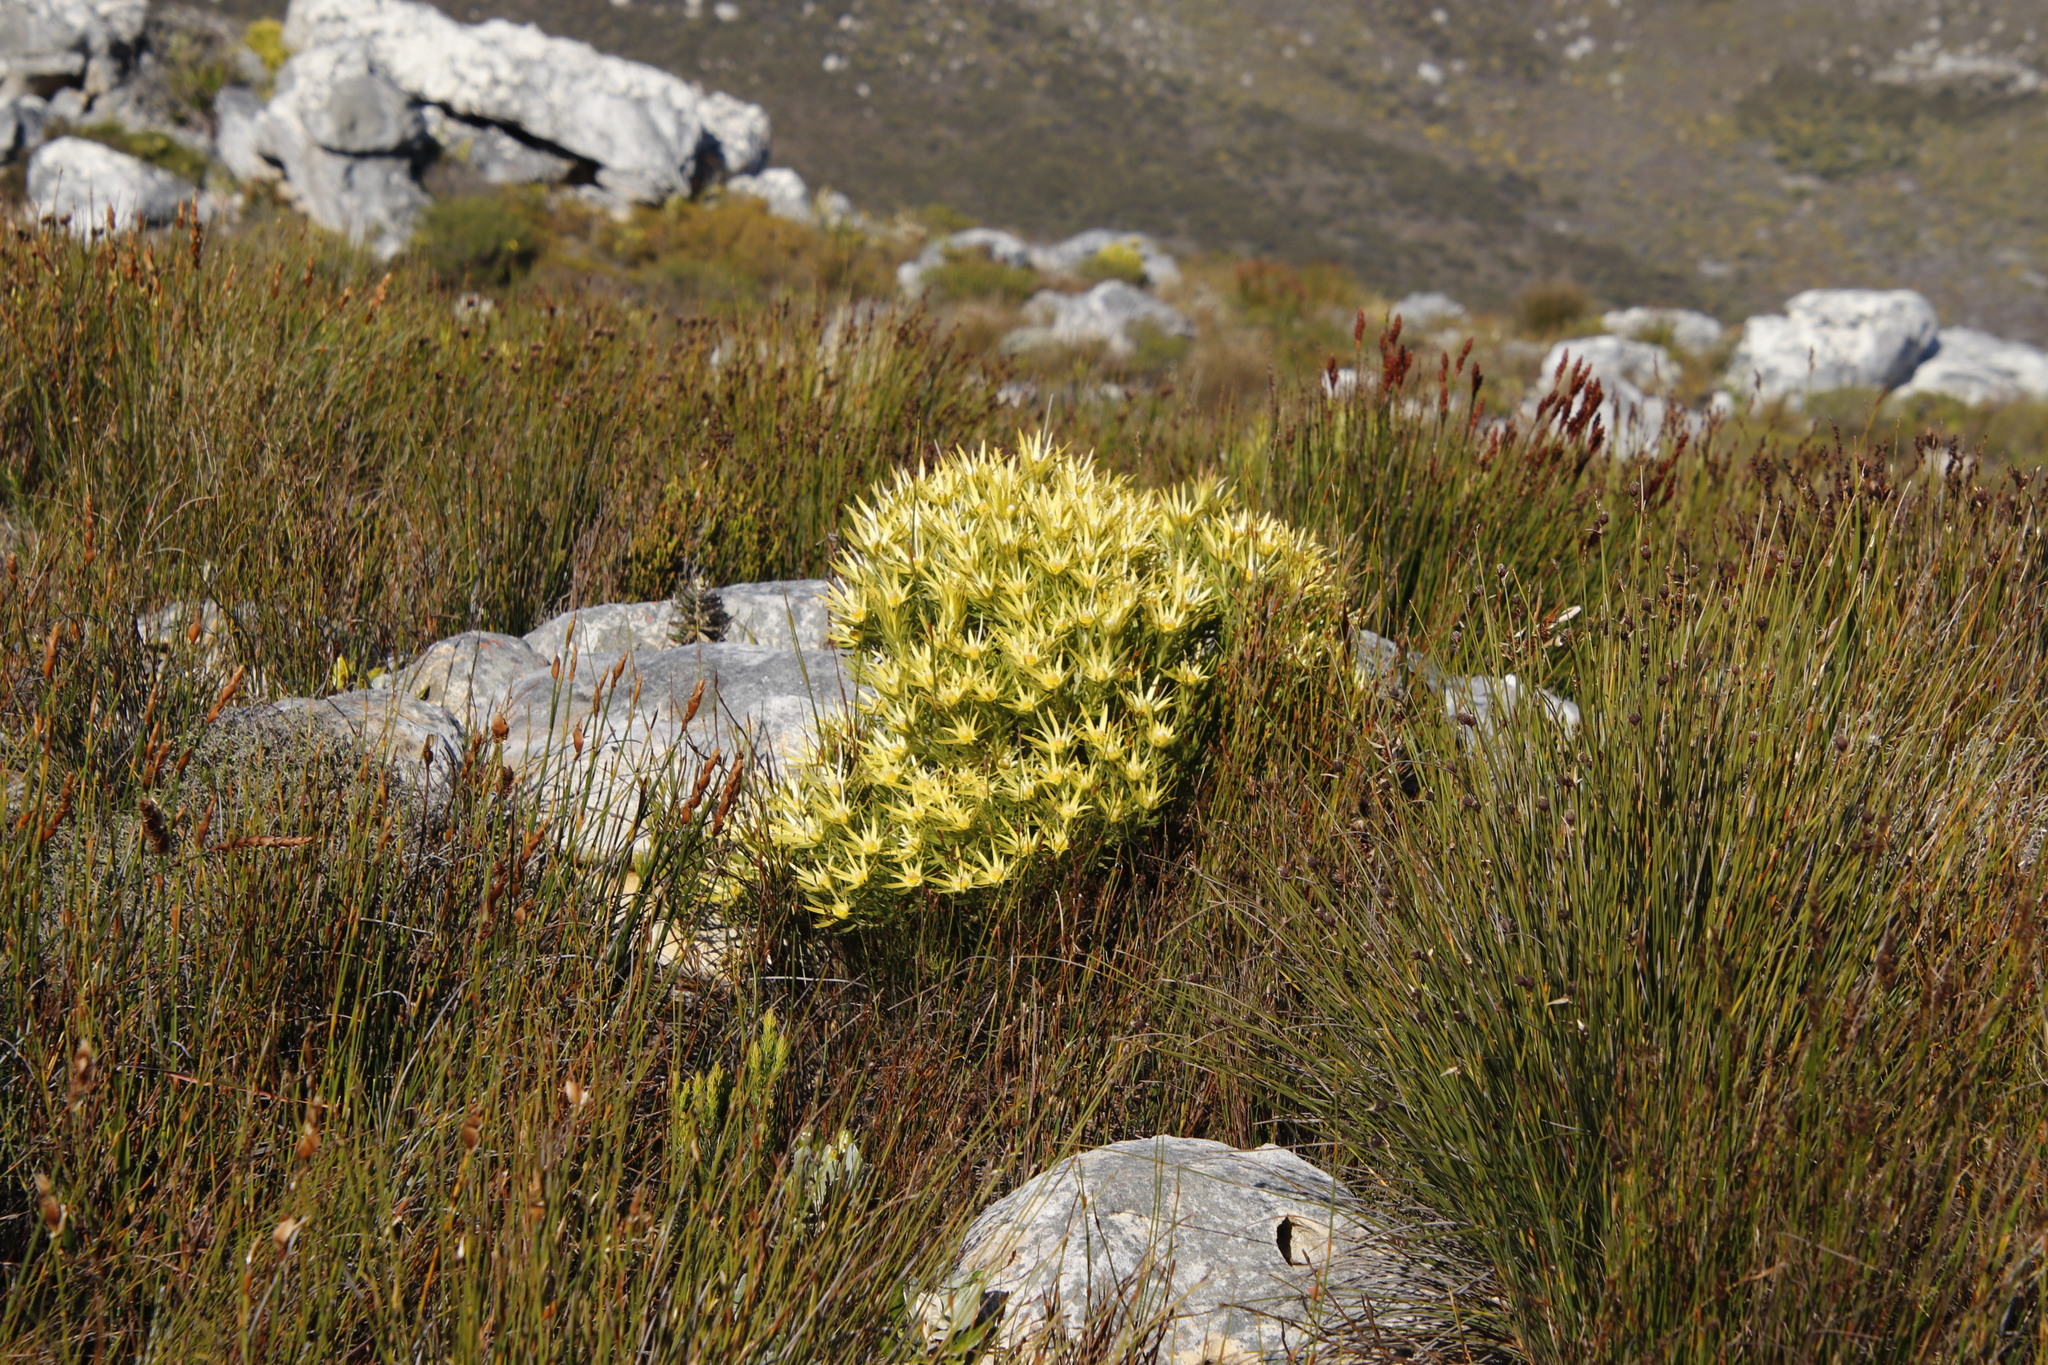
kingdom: Plantae
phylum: Tracheophyta
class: Magnoliopsida
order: Proteales
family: Proteaceae
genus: Leucadendron
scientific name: Leucadendron xanthoconus
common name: Sickle-leaf conebush
